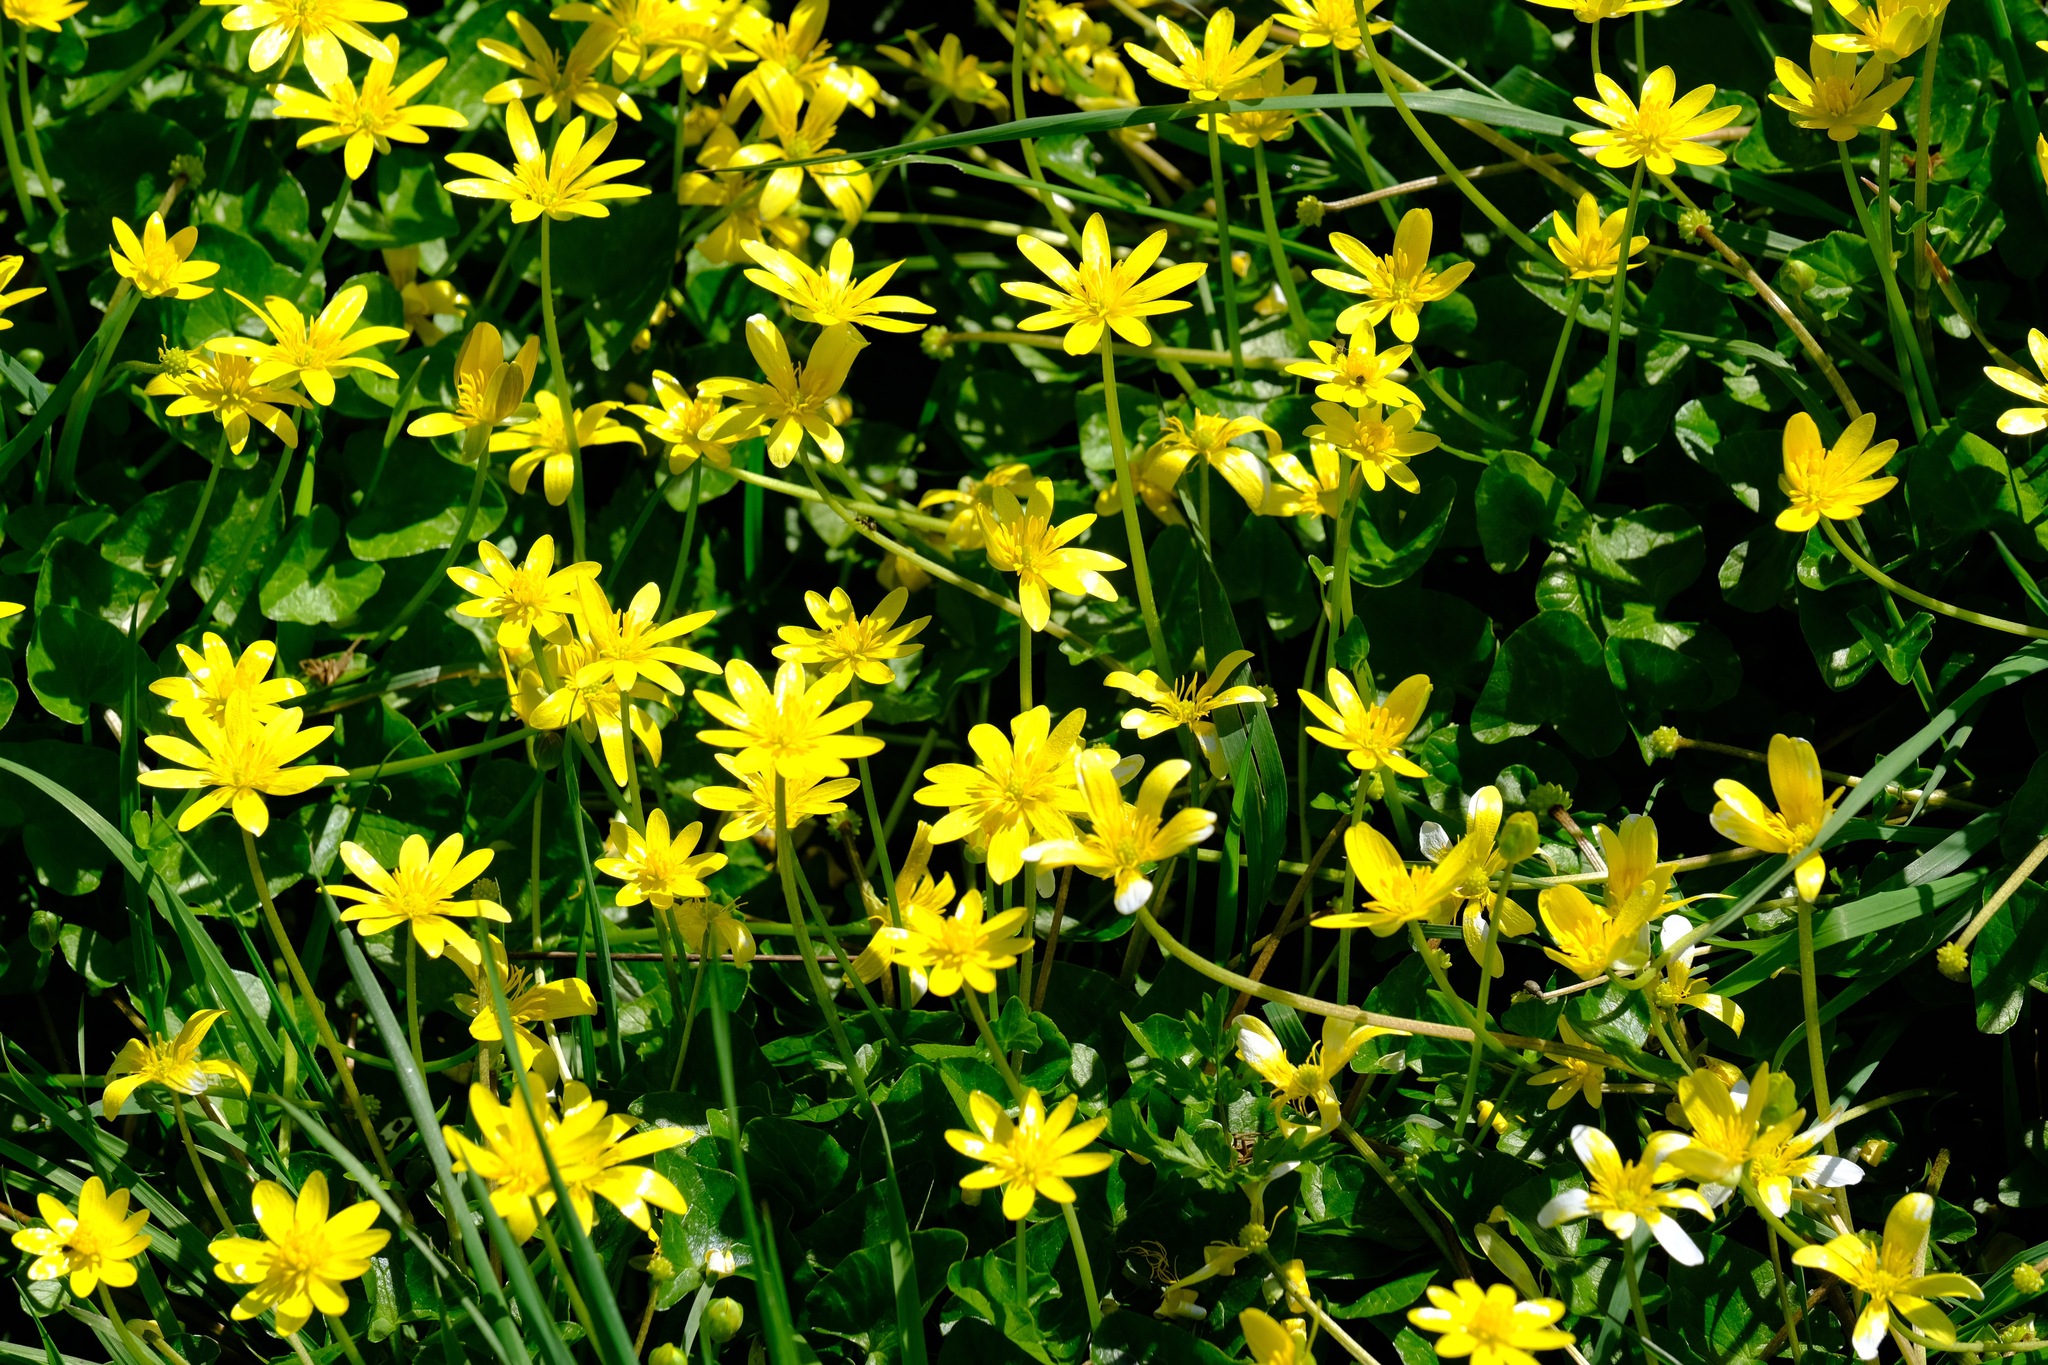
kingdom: Plantae
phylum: Tracheophyta
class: Magnoliopsida
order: Ranunculales
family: Ranunculaceae
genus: Ficaria
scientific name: Ficaria verna
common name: Lesser celandine
